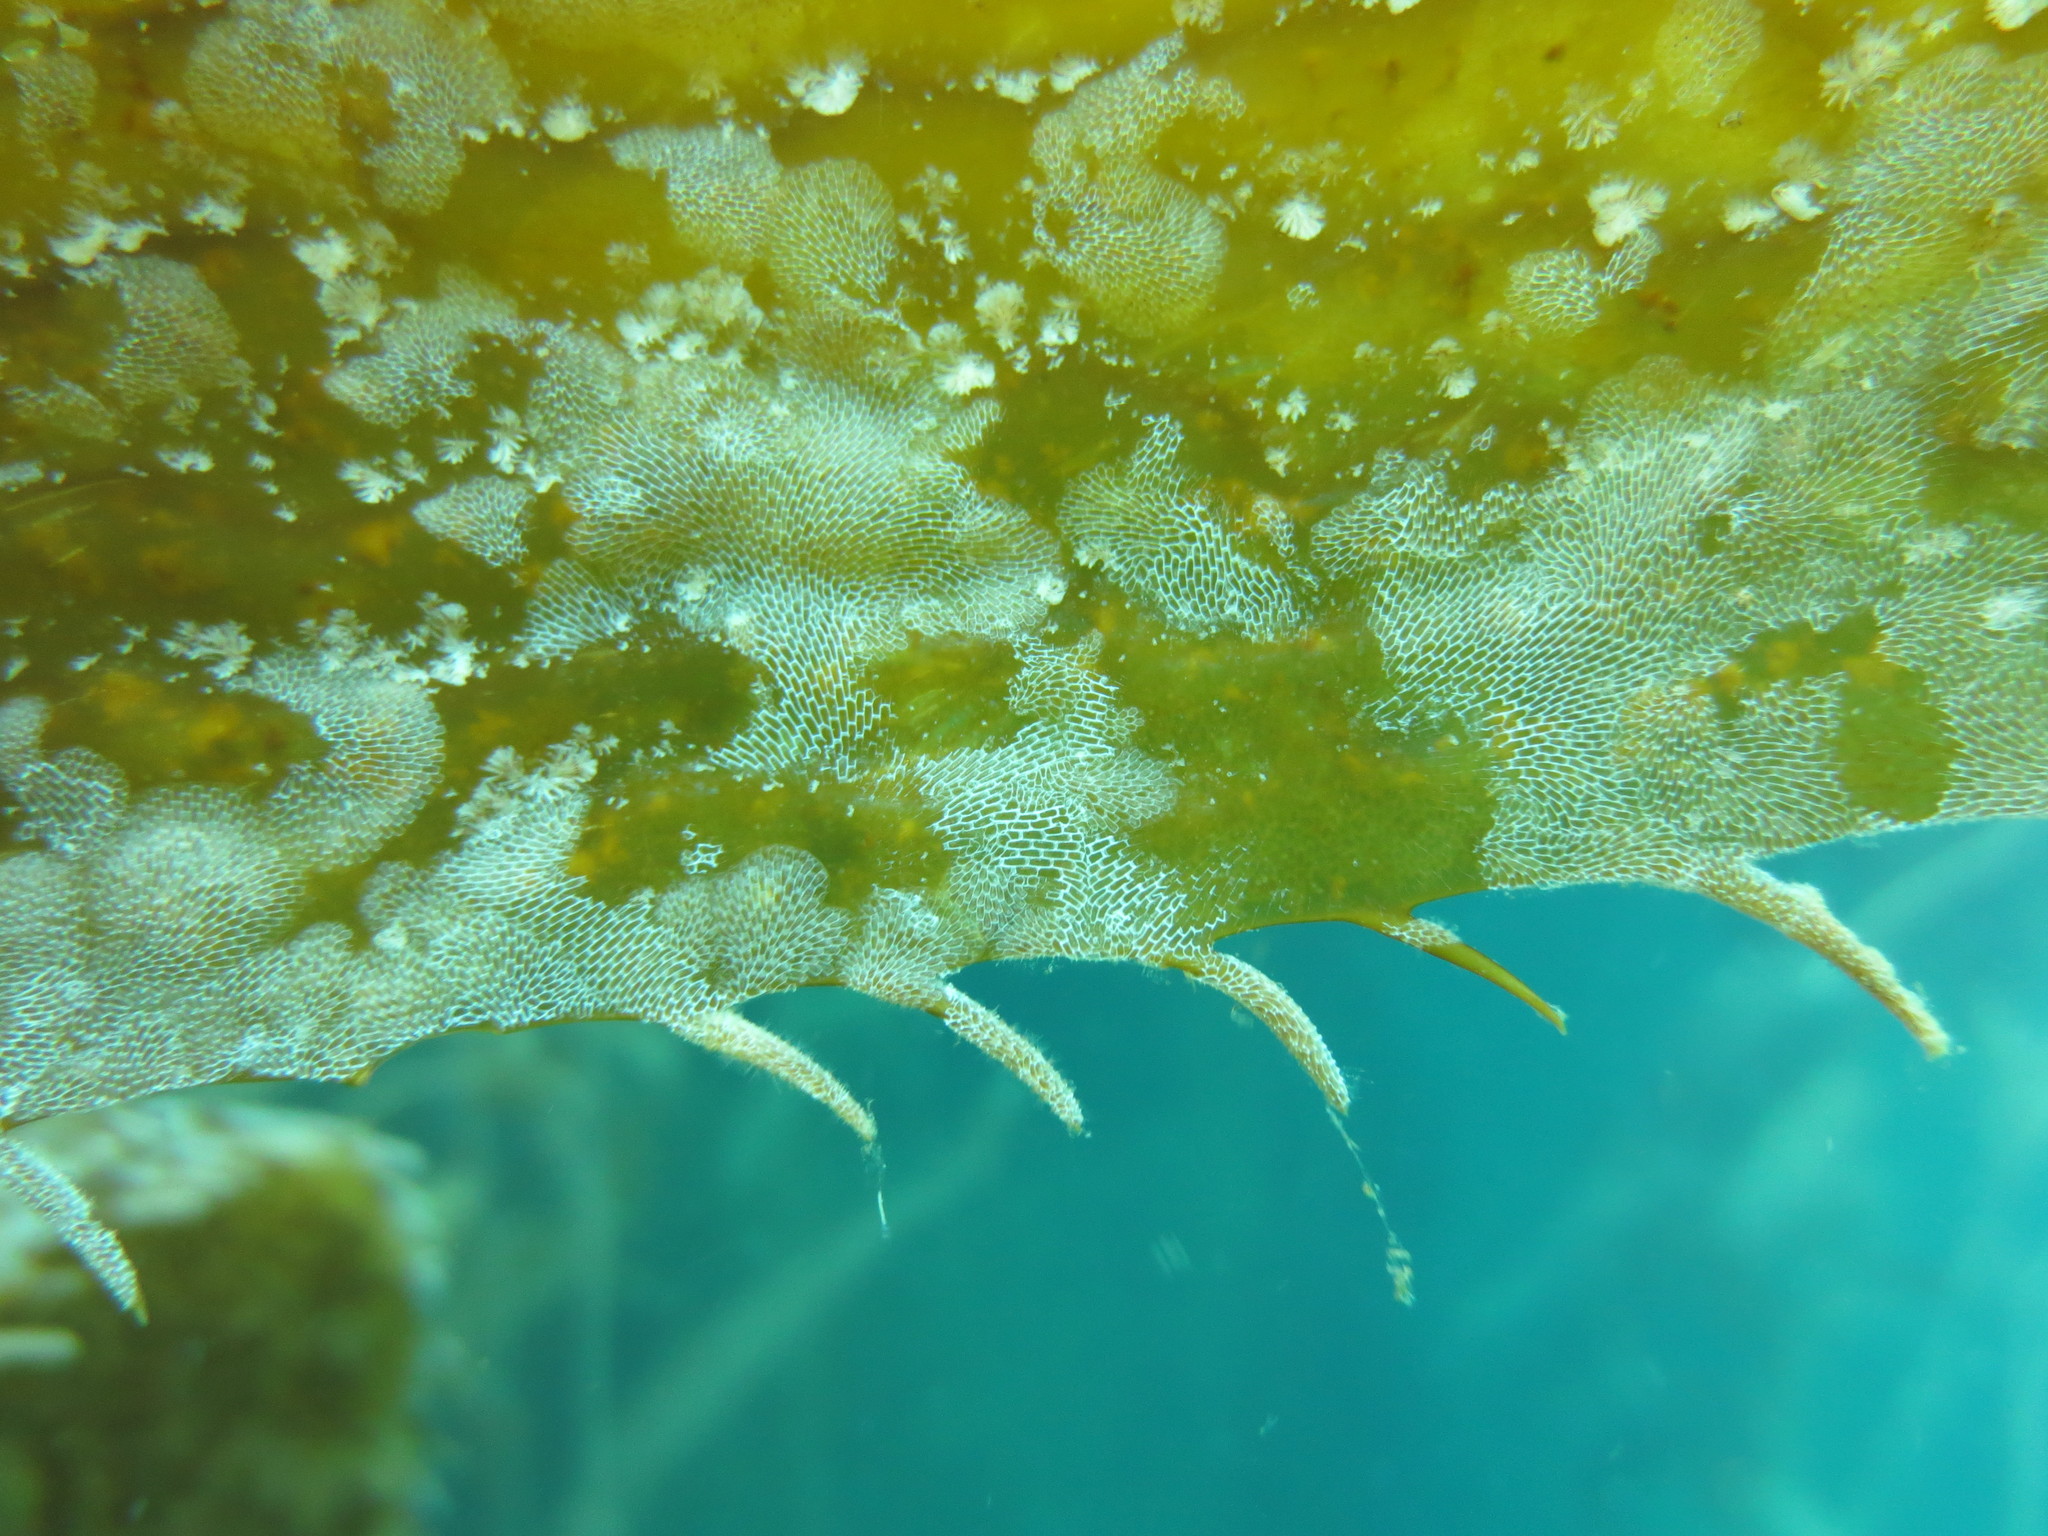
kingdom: Animalia
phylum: Bryozoa
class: Gymnolaemata
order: Cheilostomatida
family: Membraniporidae
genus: Membranipora
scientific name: Membranipora membranacea
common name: Sea mat
